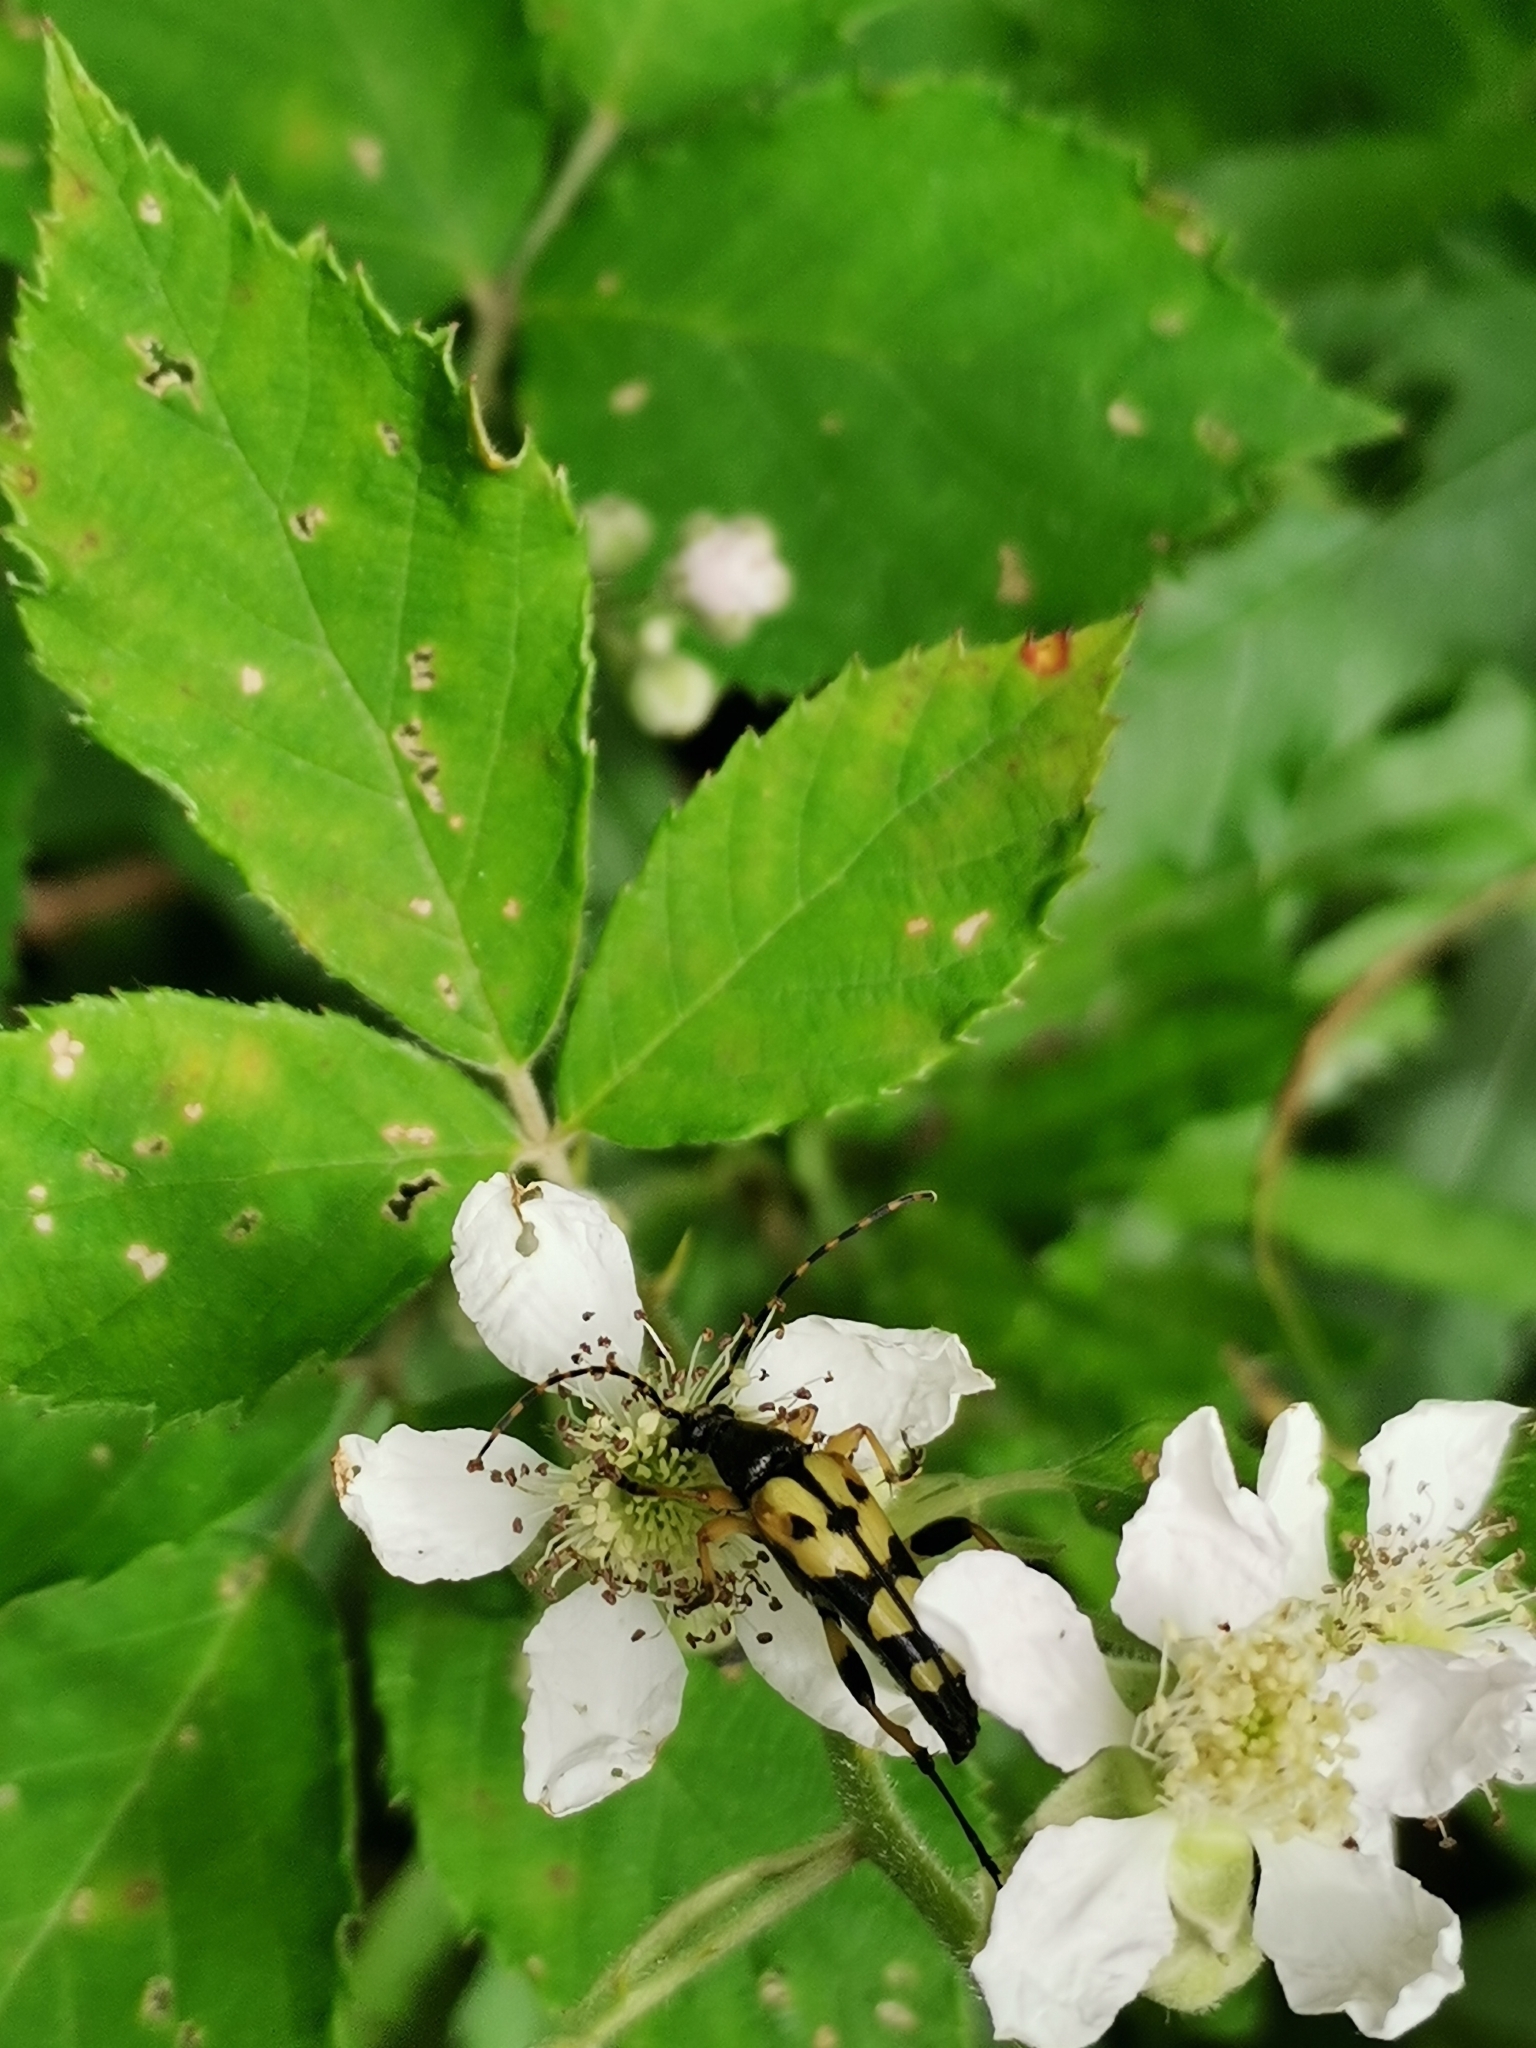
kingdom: Animalia
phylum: Arthropoda
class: Insecta
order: Coleoptera
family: Cerambycidae
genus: Rutpela
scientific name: Rutpela maculata
